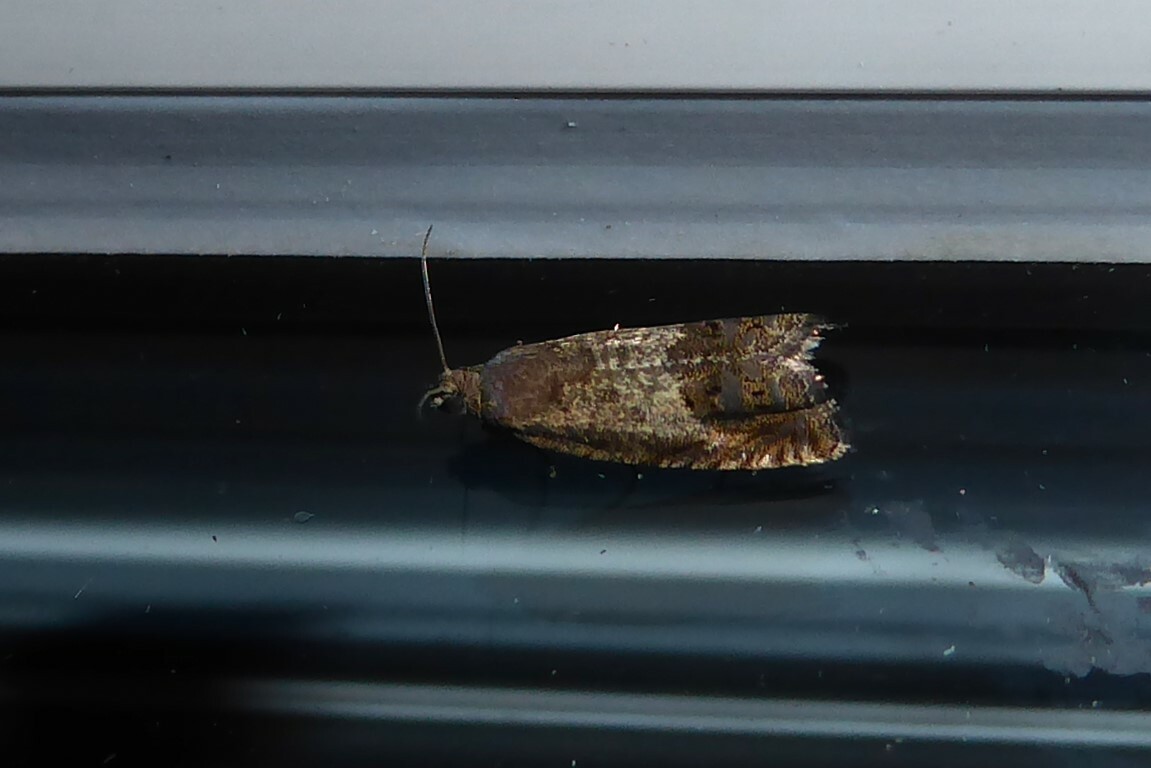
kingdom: Animalia
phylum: Arthropoda
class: Insecta
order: Lepidoptera
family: Tortricidae
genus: Cydia
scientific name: Cydia succedana
